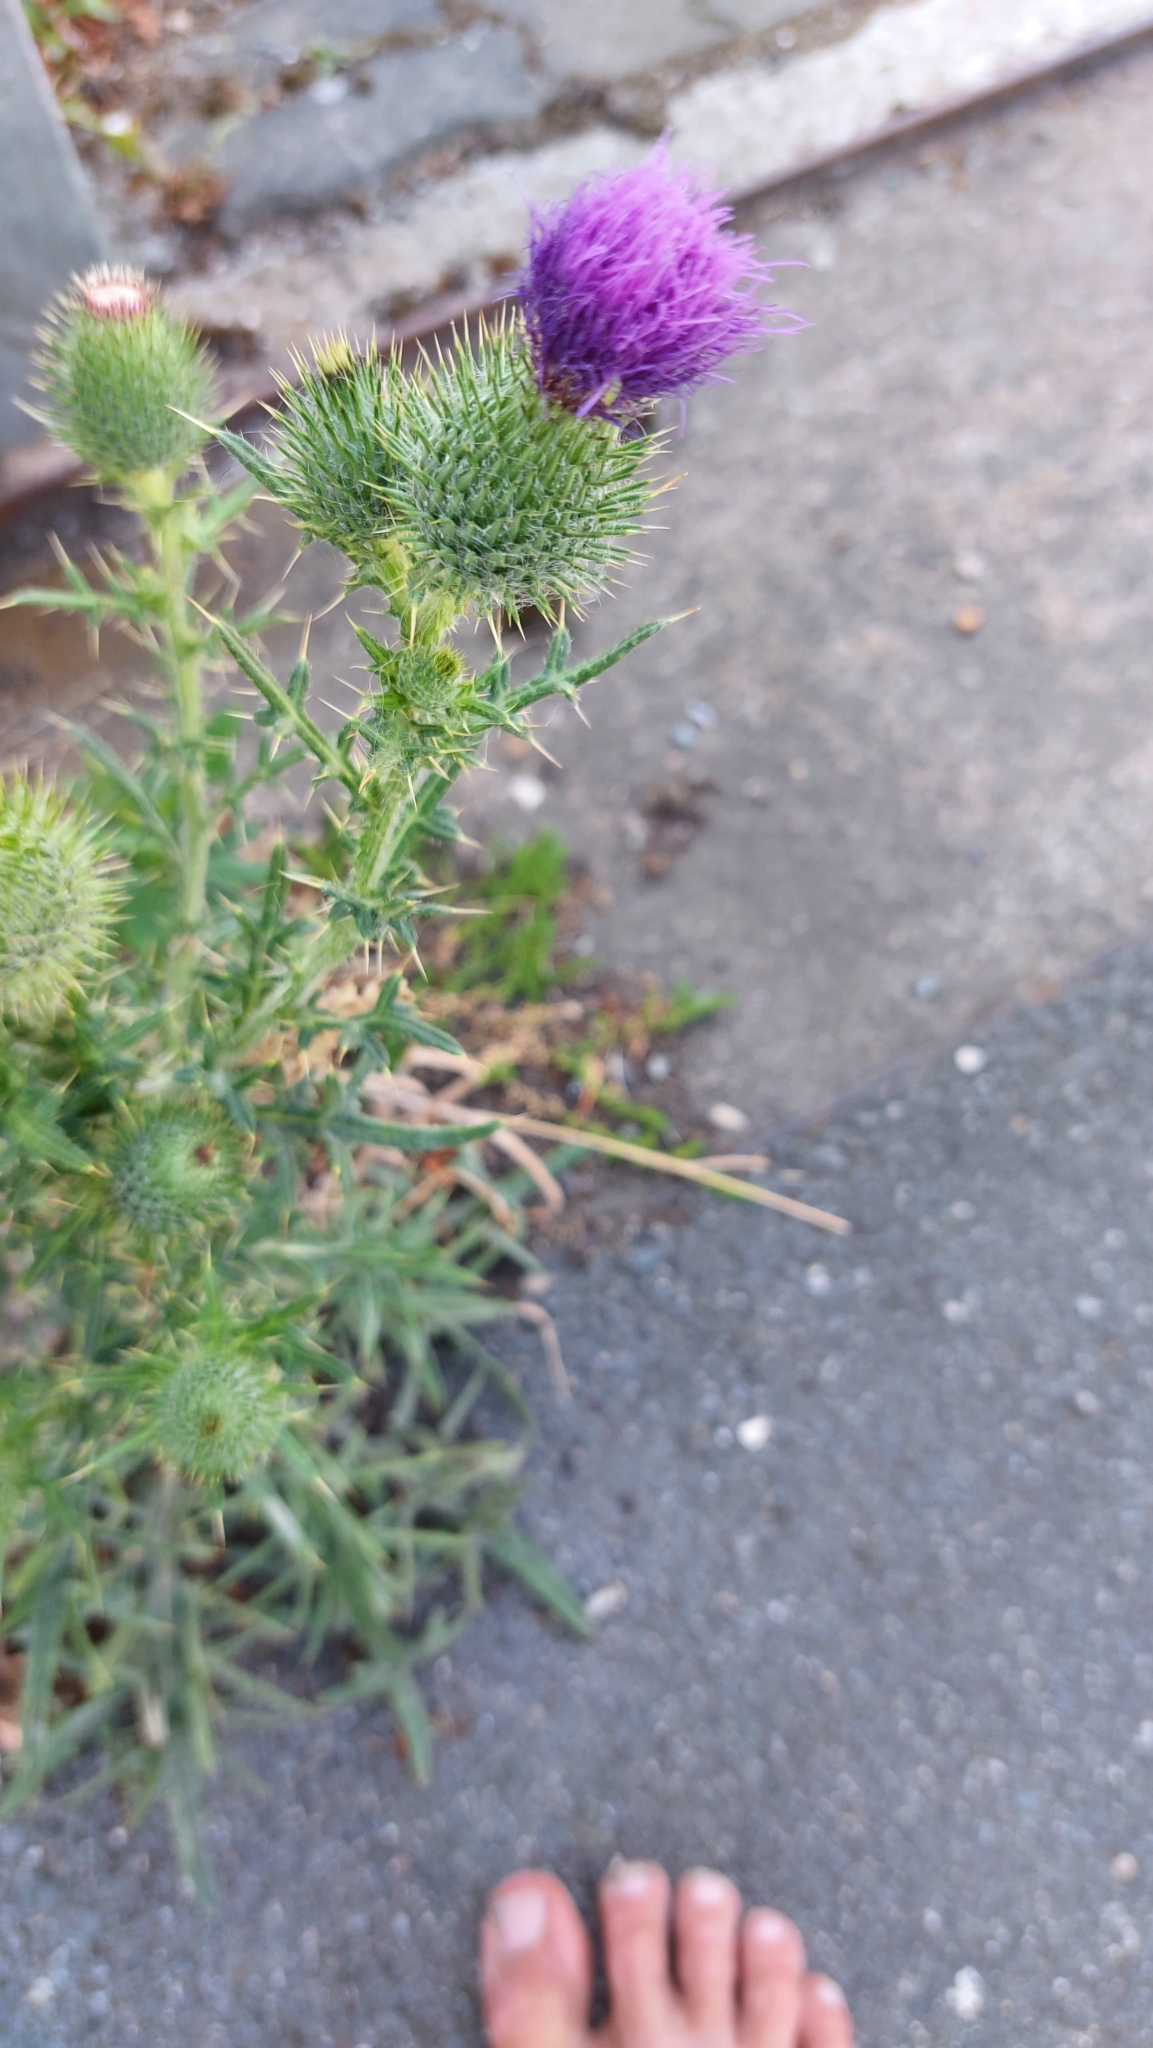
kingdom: Plantae
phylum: Tracheophyta
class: Magnoliopsida
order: Asterales
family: Asteraceae
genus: Cirsium
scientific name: Cirsium vulgare
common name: Bull thistle
